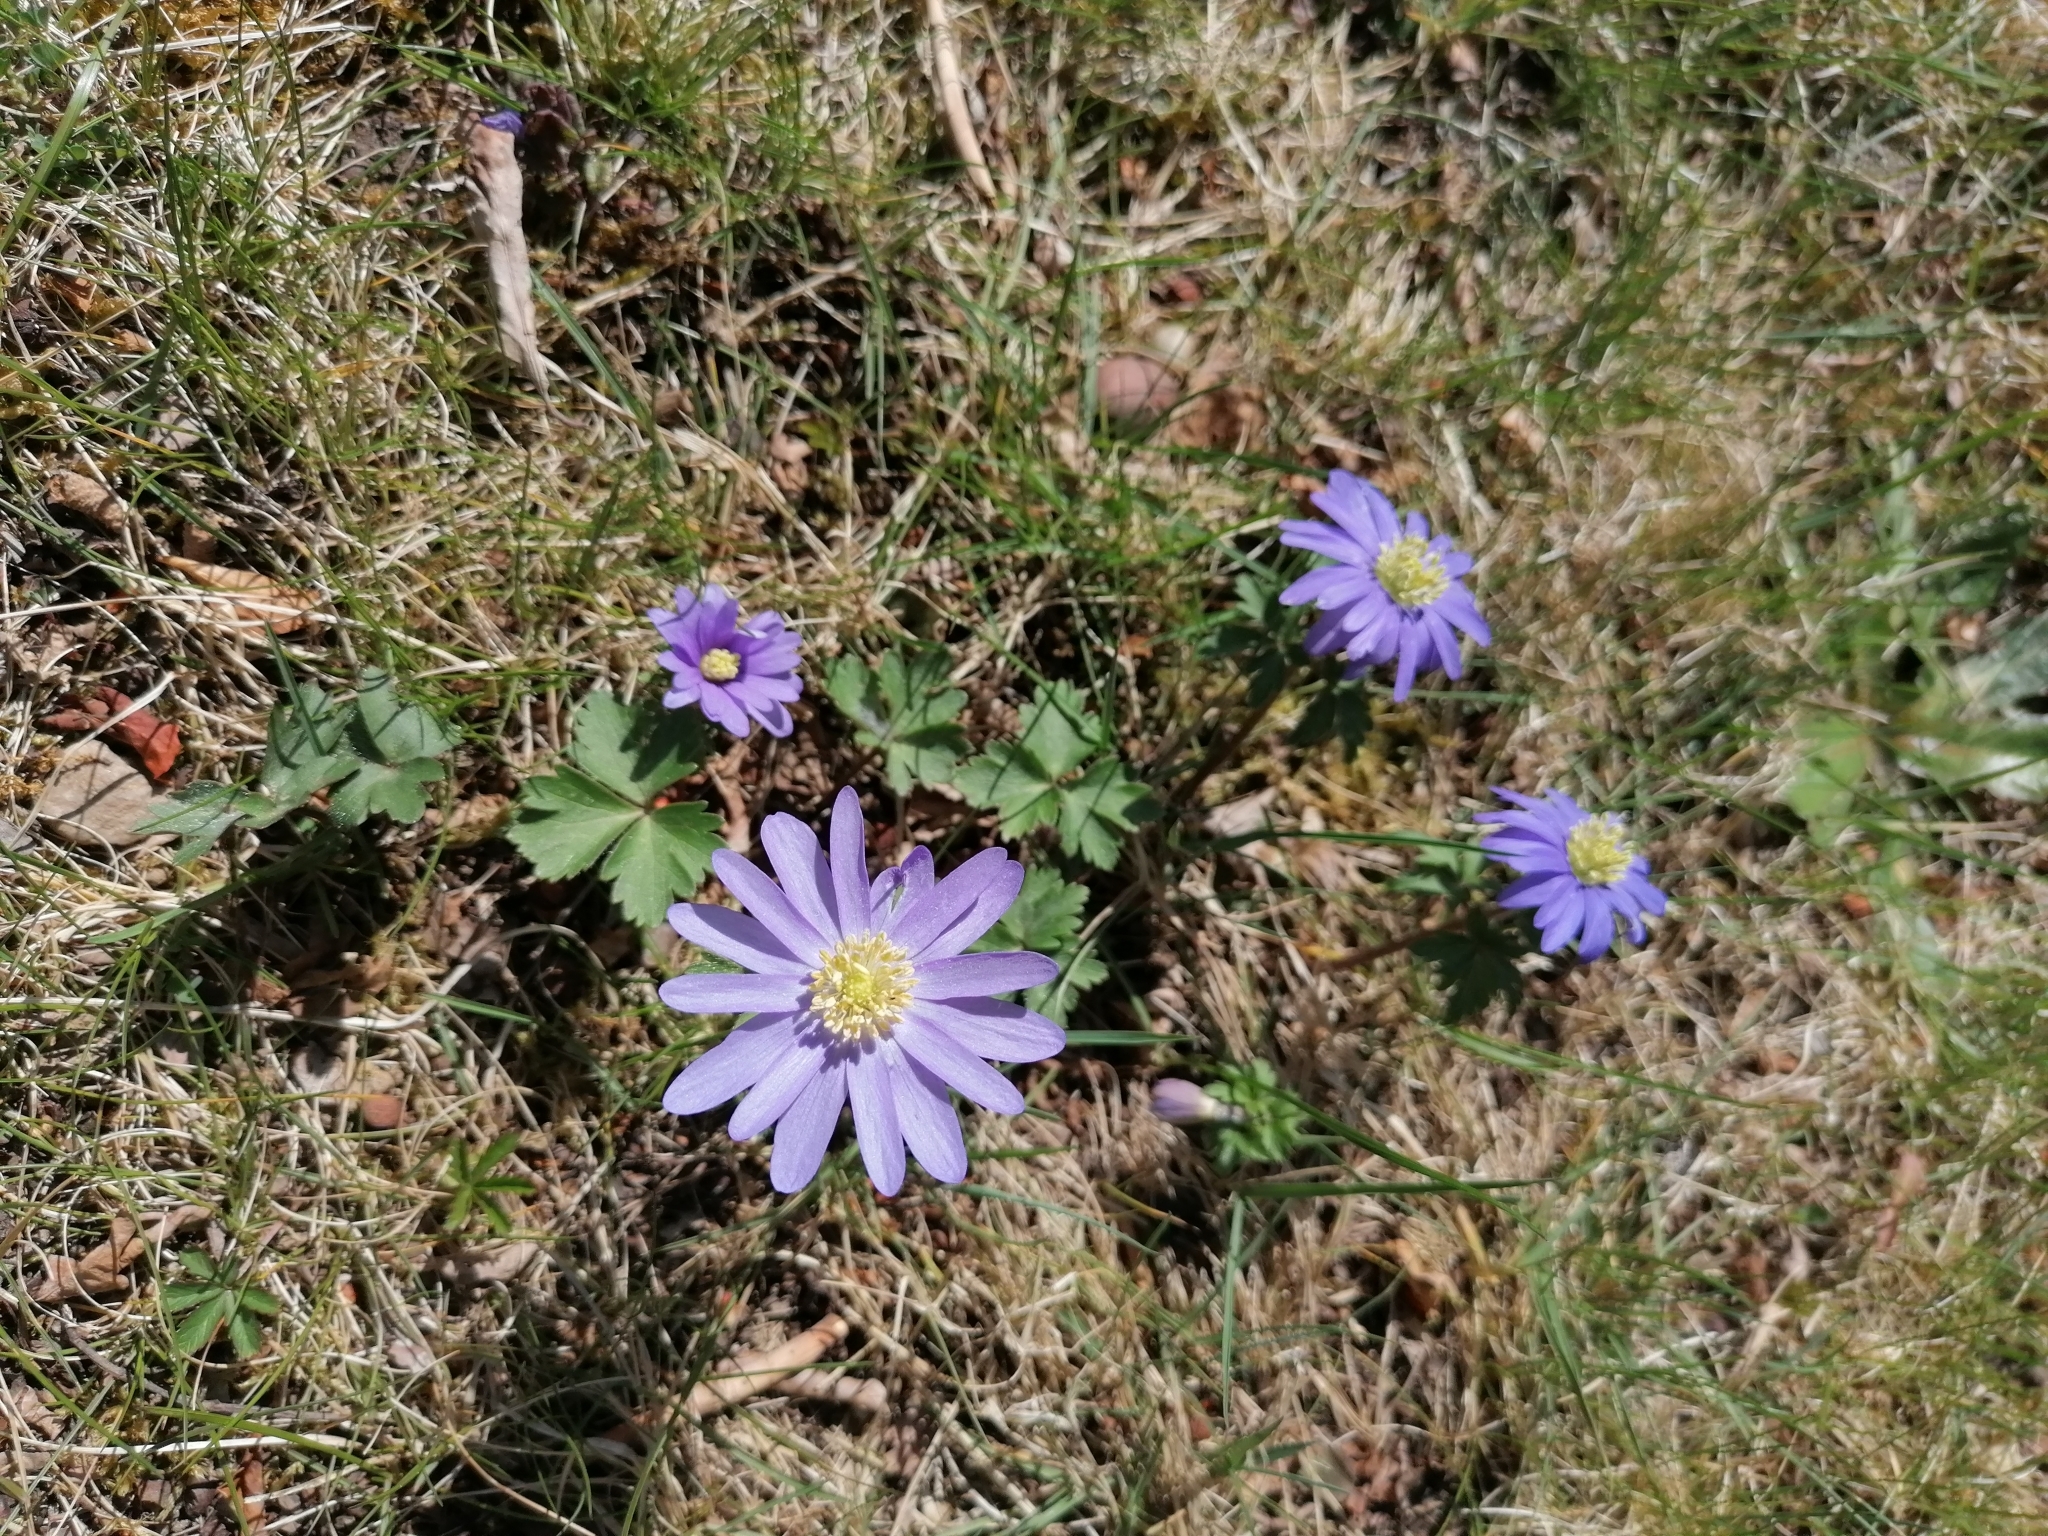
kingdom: Plantae
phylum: Tracheophyta
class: Magnoliopsida
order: Ranunculales
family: Ranunculaceae
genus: Anemone
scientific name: Anemone blanda
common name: Balkan anemone
